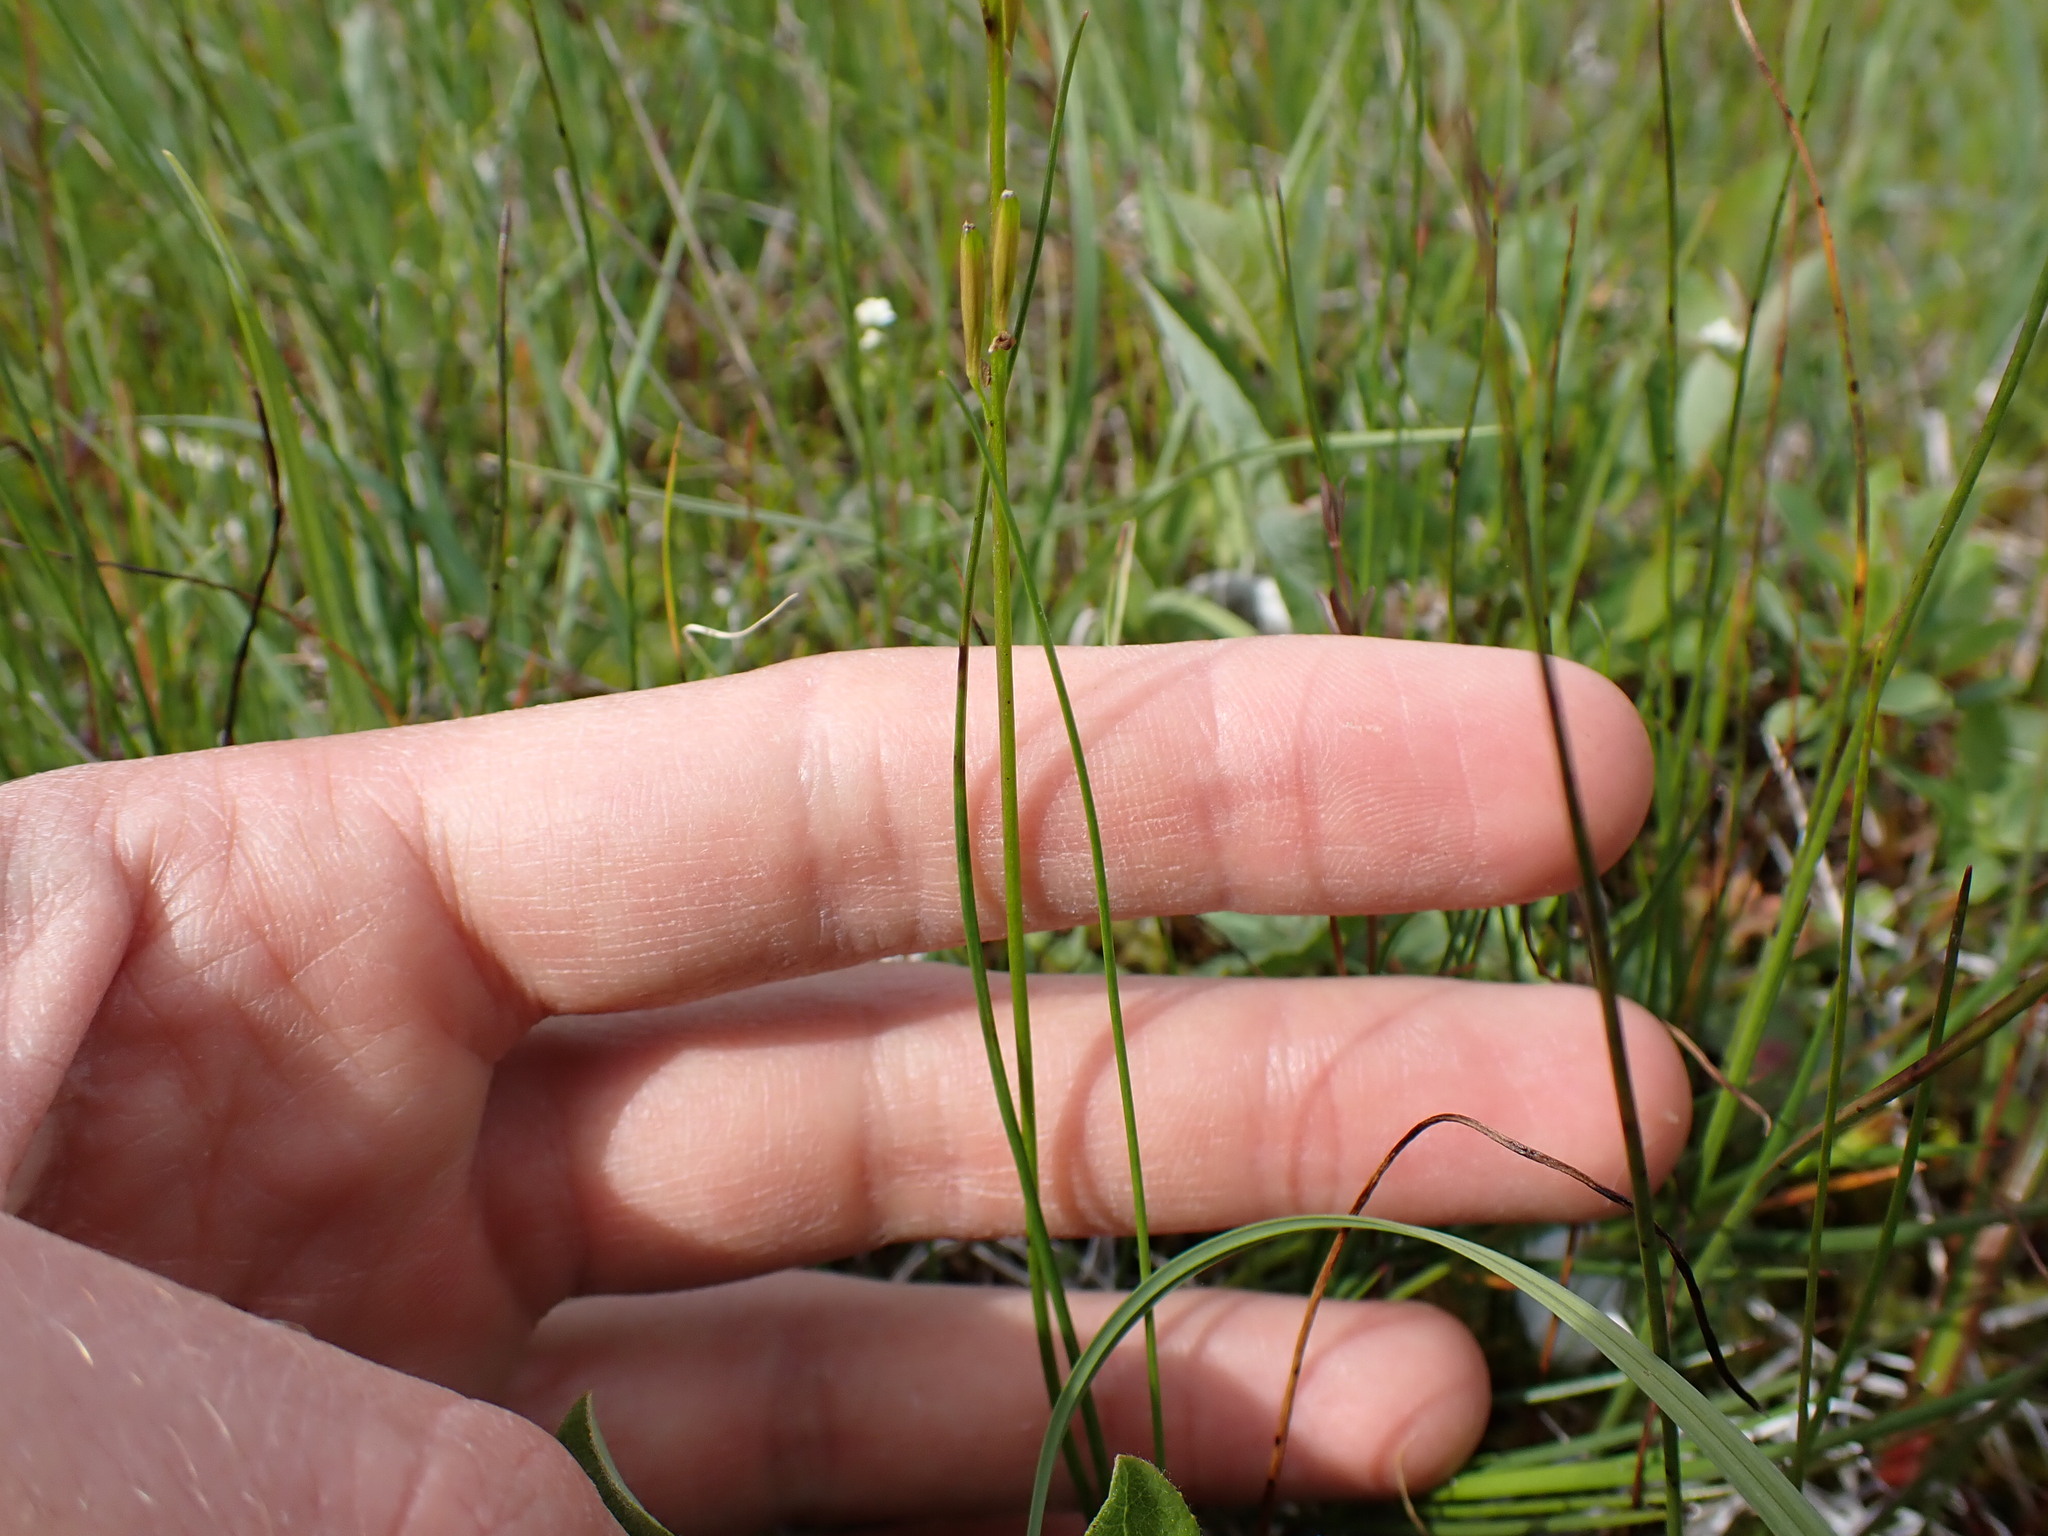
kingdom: Plantae
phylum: Tracheophyta
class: Liliopsida
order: Alismatales
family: Juncaginaceae
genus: Triglochin
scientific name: Triglochin palustris
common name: Marsh arrowgrass
